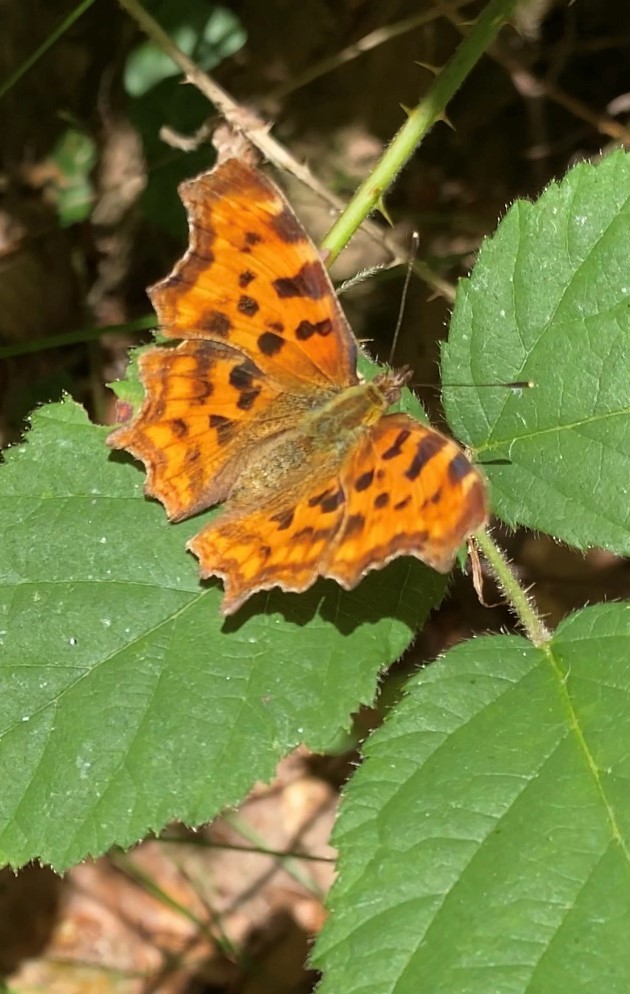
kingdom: Animalia
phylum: Arthropoda
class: Insecta
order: Lepidoptera
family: Nymphalidae
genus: Polygonia
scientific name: Polygonia c-album
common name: Comma
